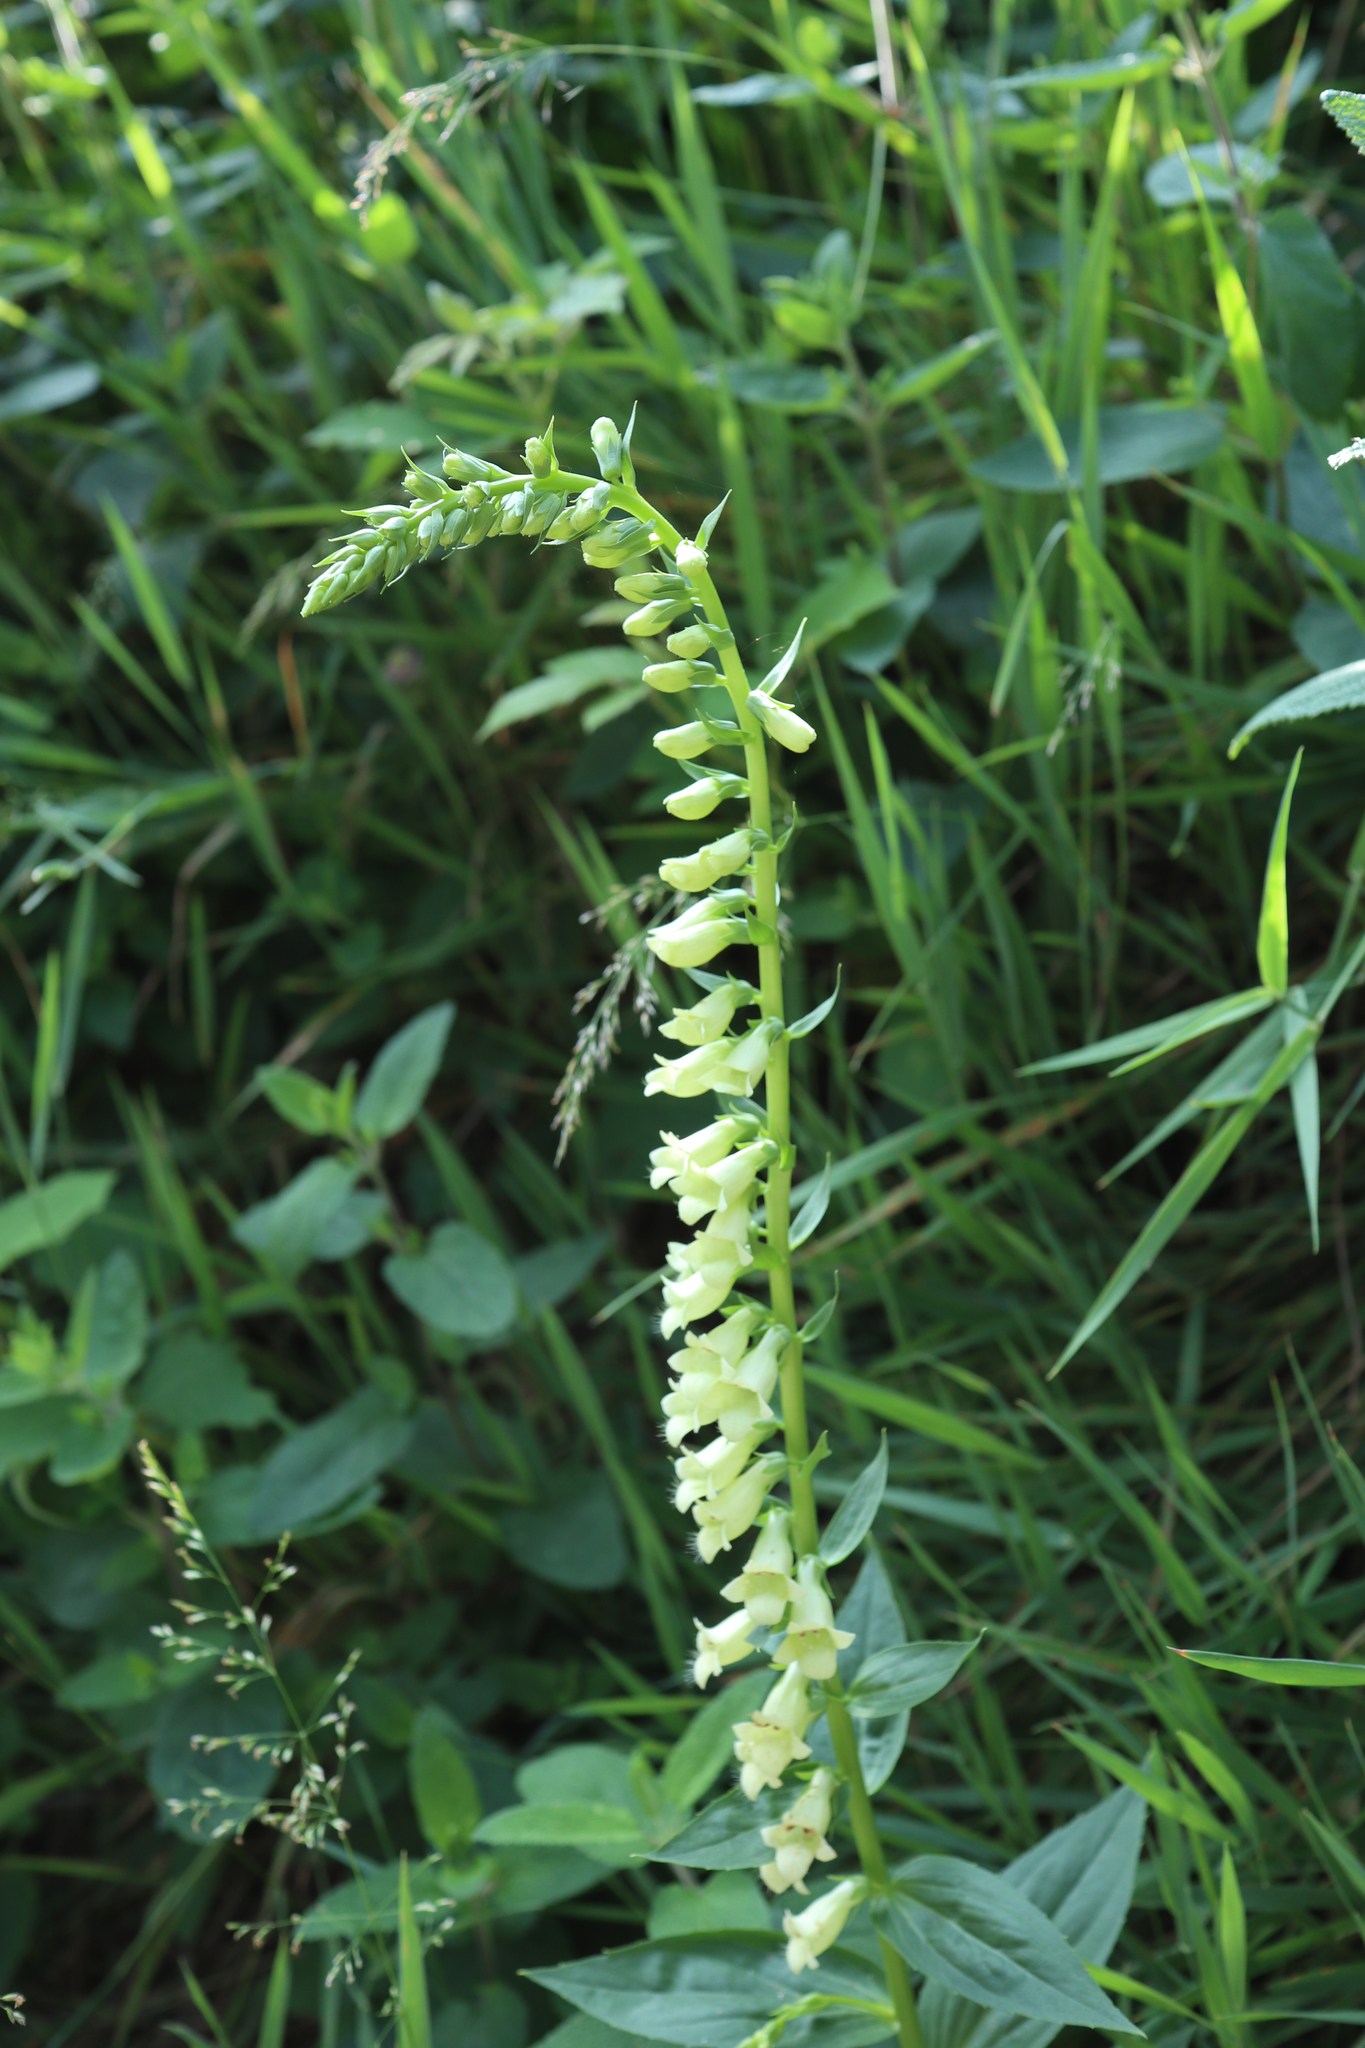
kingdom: Plantae
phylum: Tracheophyta
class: Magnoliopsida
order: Lamiales
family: Plantaginaceae
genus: Digitalis
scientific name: Digitalis lutea
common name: Straw foxglove
